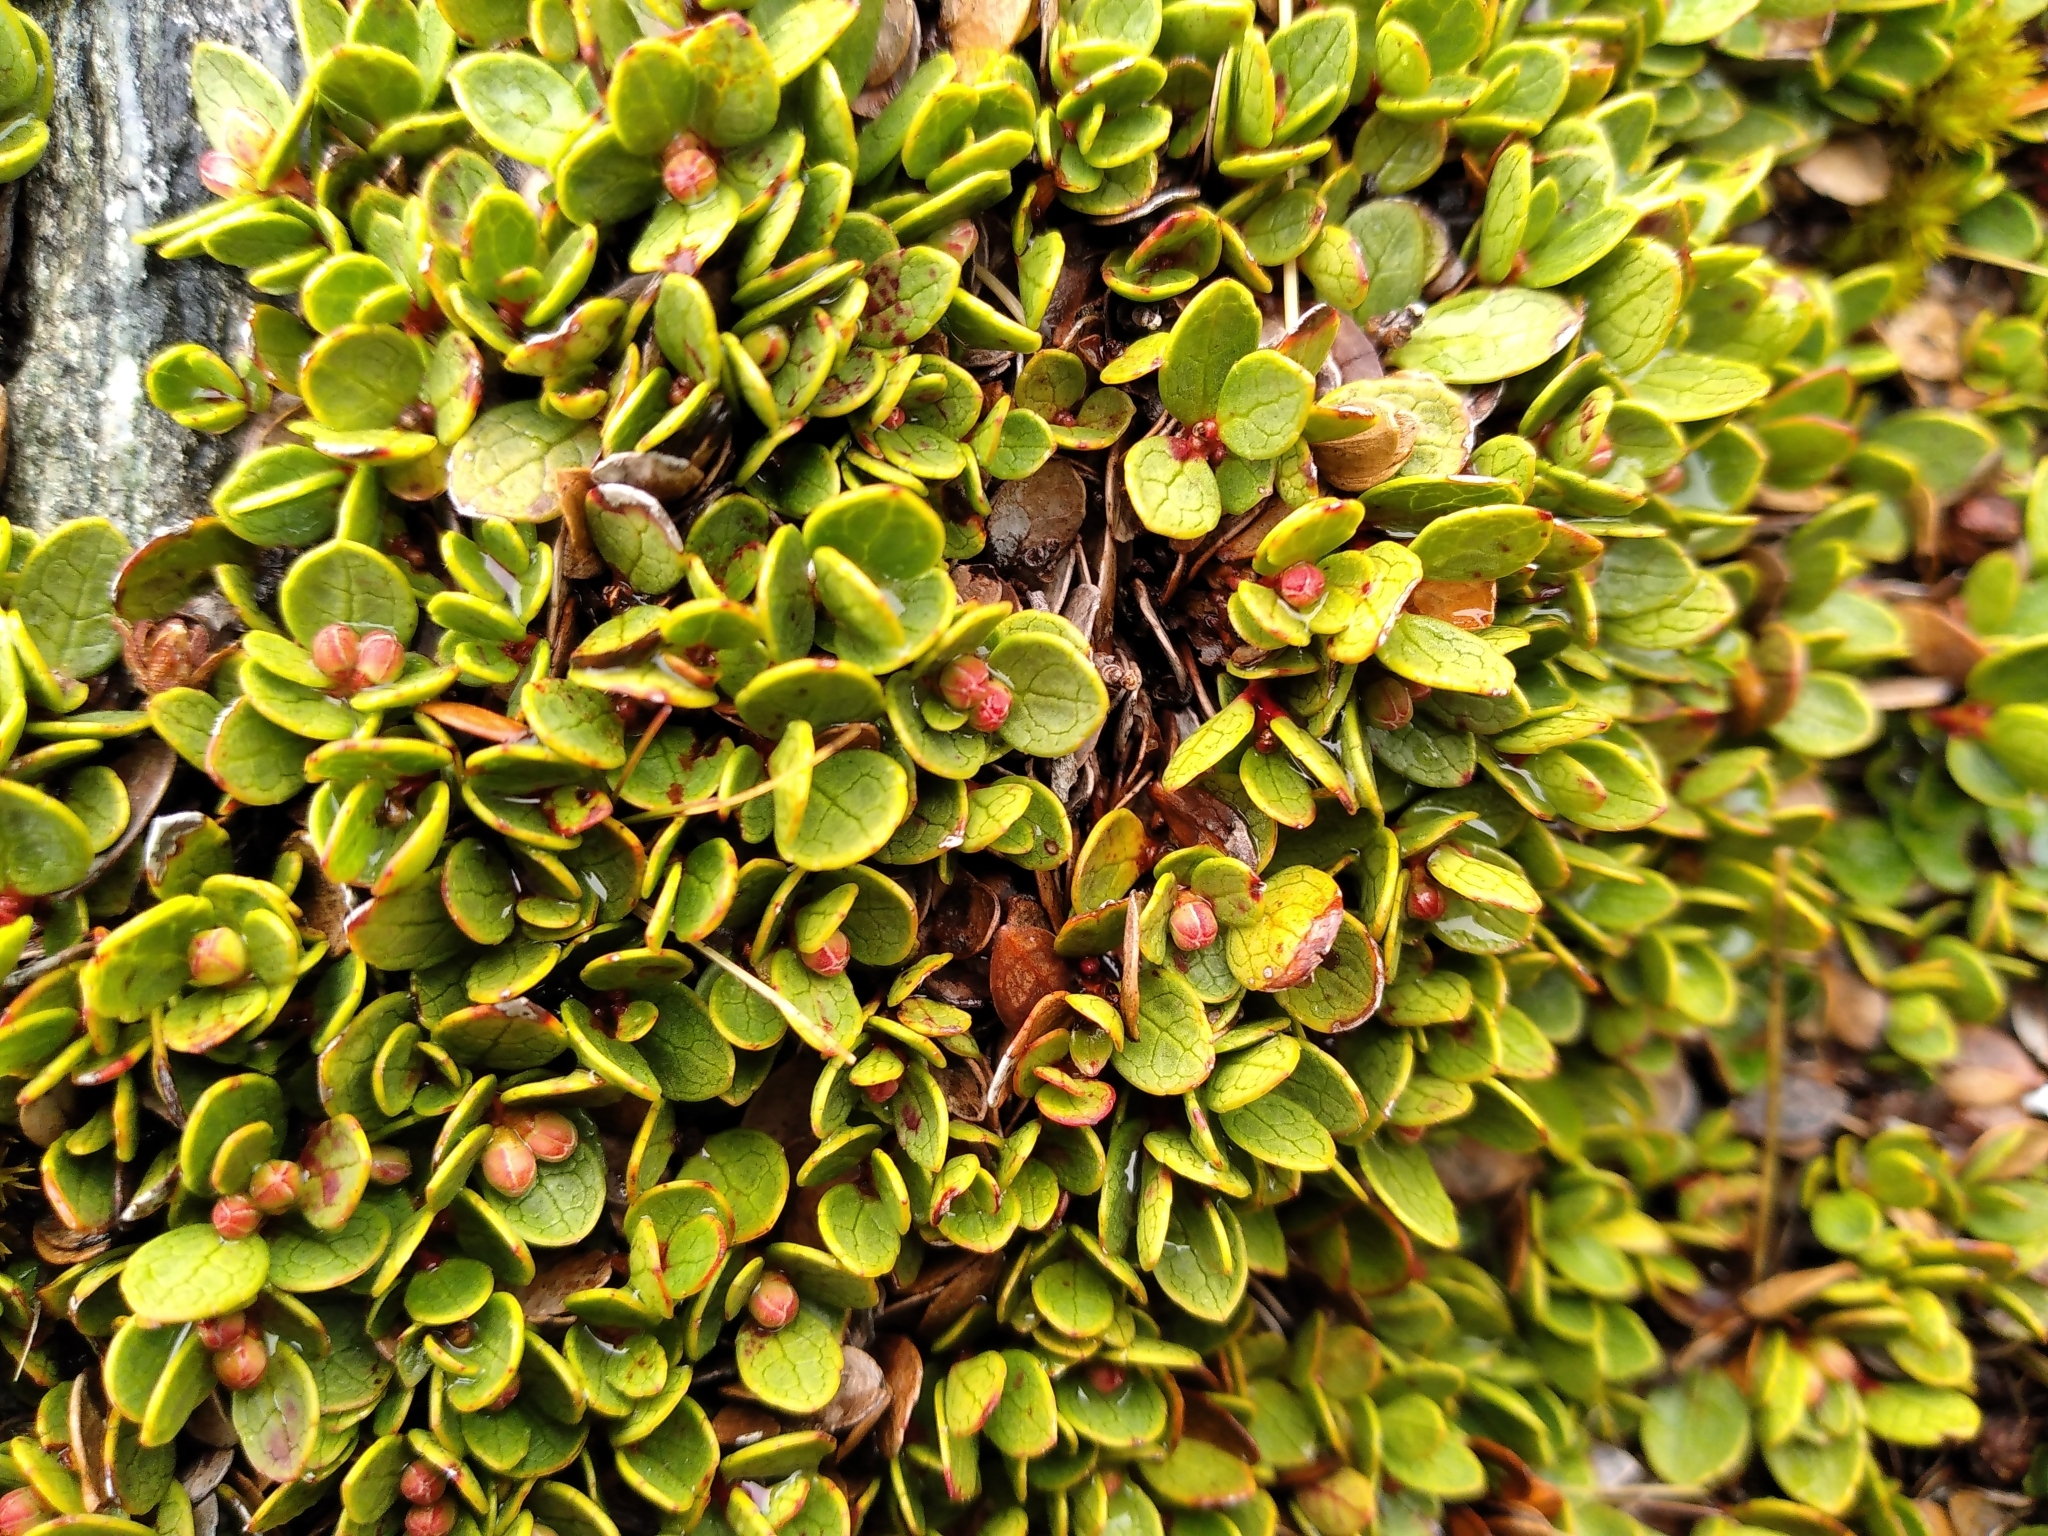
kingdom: Plantae
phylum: Tracheophyta
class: Magnoliopsida
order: Ericales
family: Ericaceae
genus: Gaultheria
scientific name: Gaultheria nubicola
